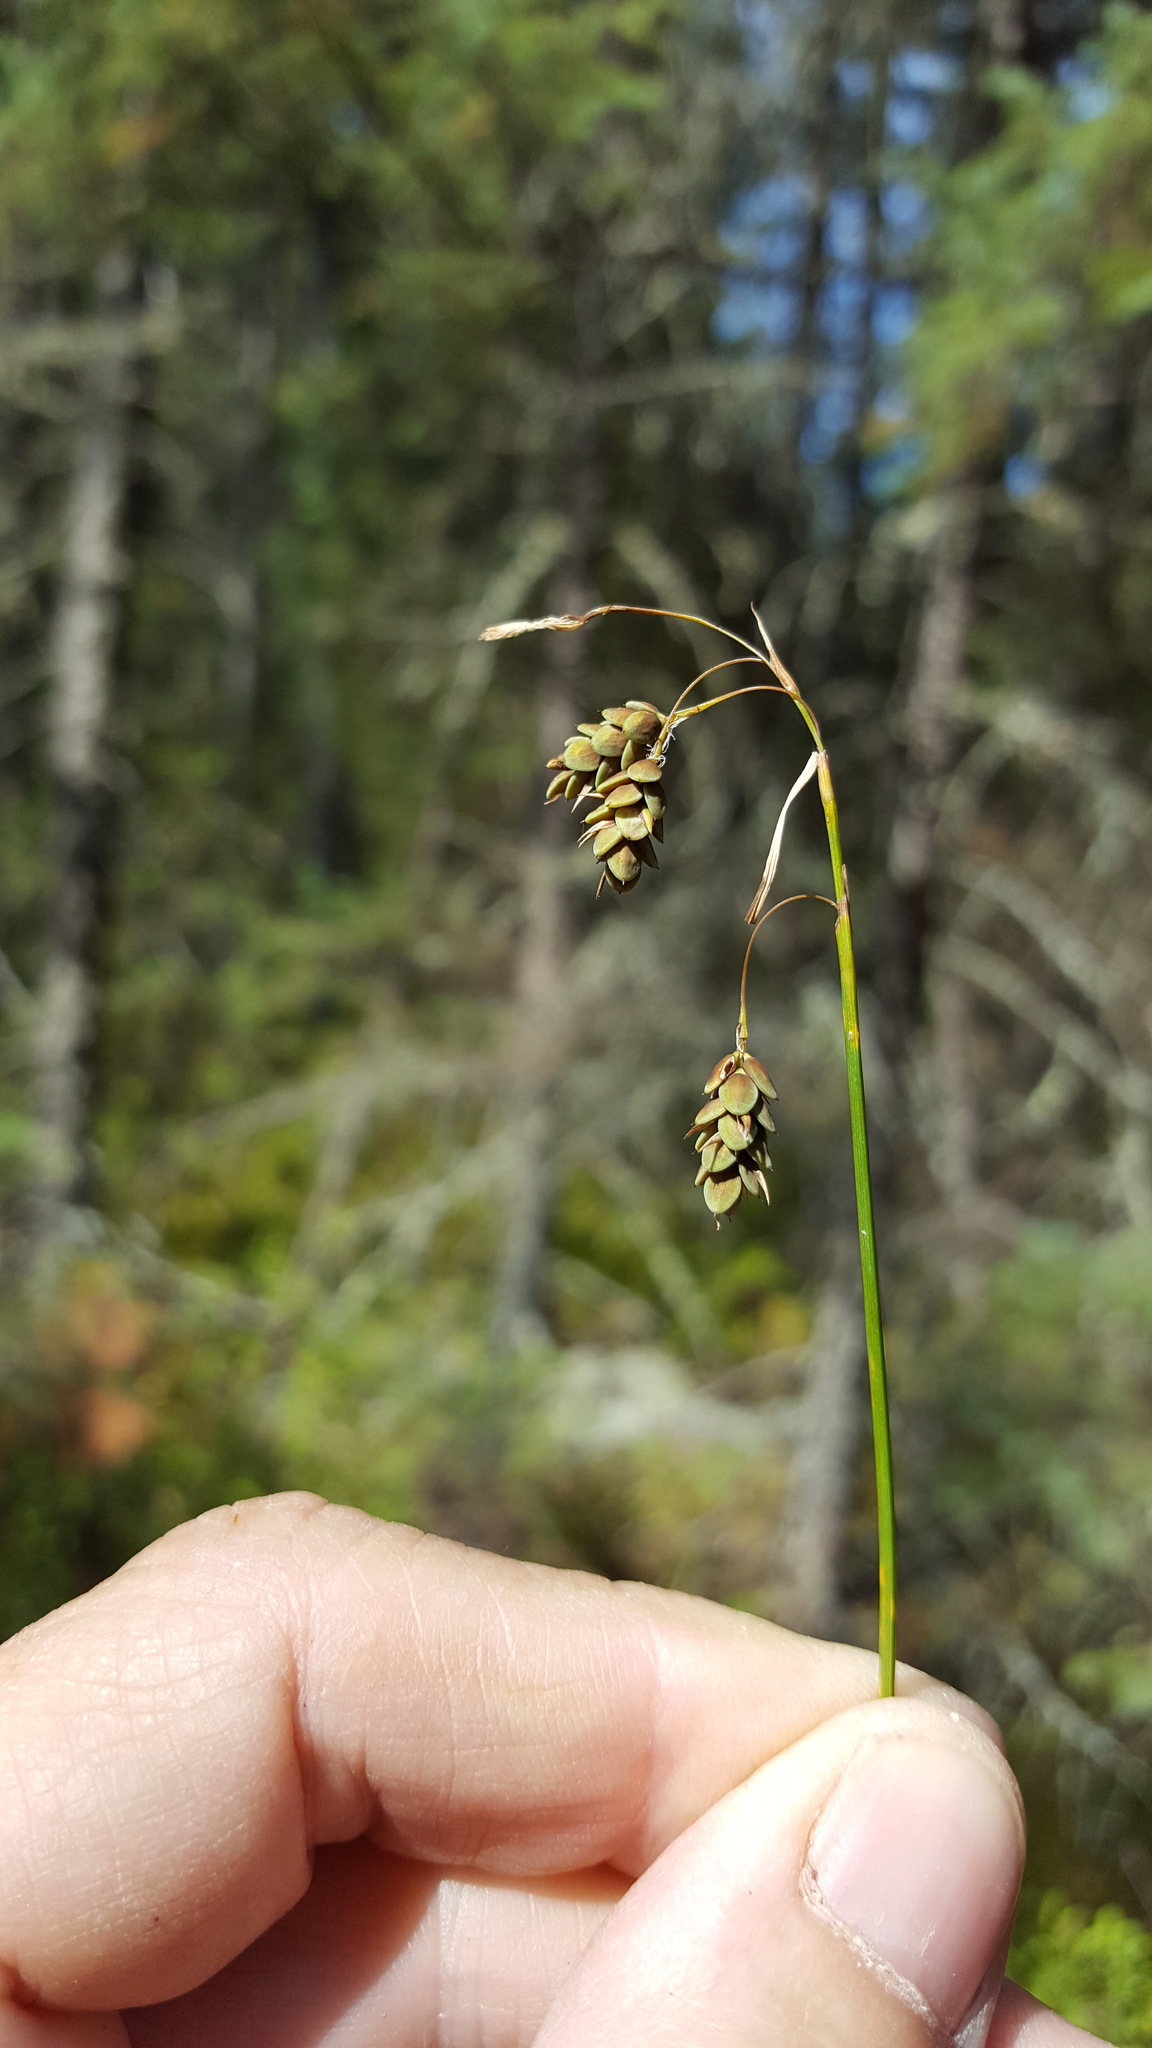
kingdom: Plantae
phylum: Tracheophyta
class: Liliopsida
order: Poales
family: Cyperaceae
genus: Carex
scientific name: Carex magellanica
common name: Bog sedge
